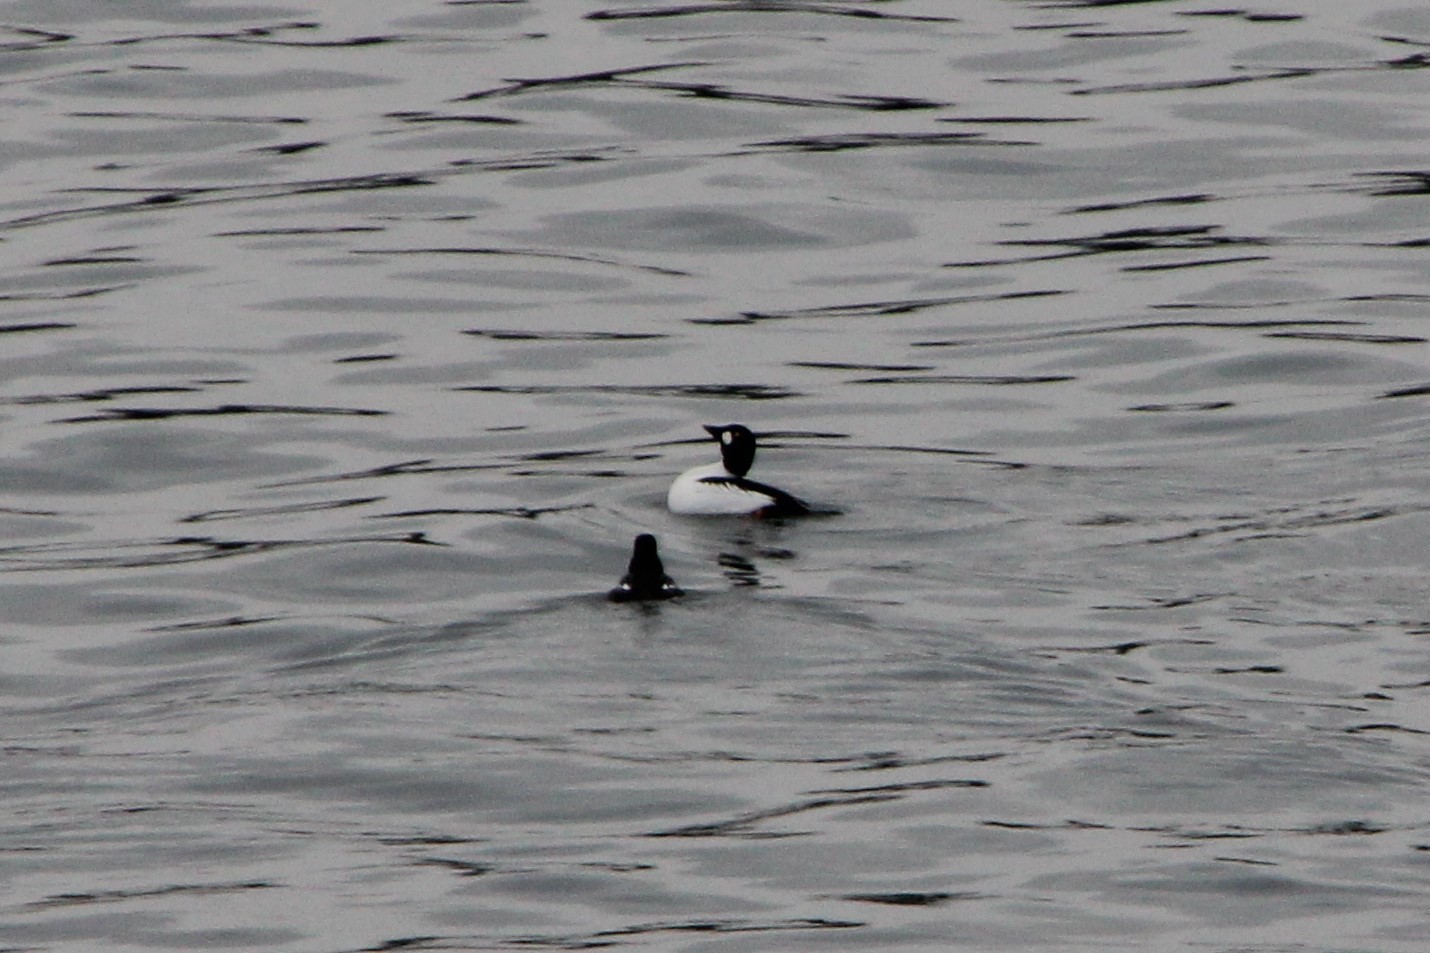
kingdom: Animalia
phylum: Chordata
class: Aves
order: Anseriformes
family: Anatidae
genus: Bucephala
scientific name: Bucephala clangula
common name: Common goldeneye
